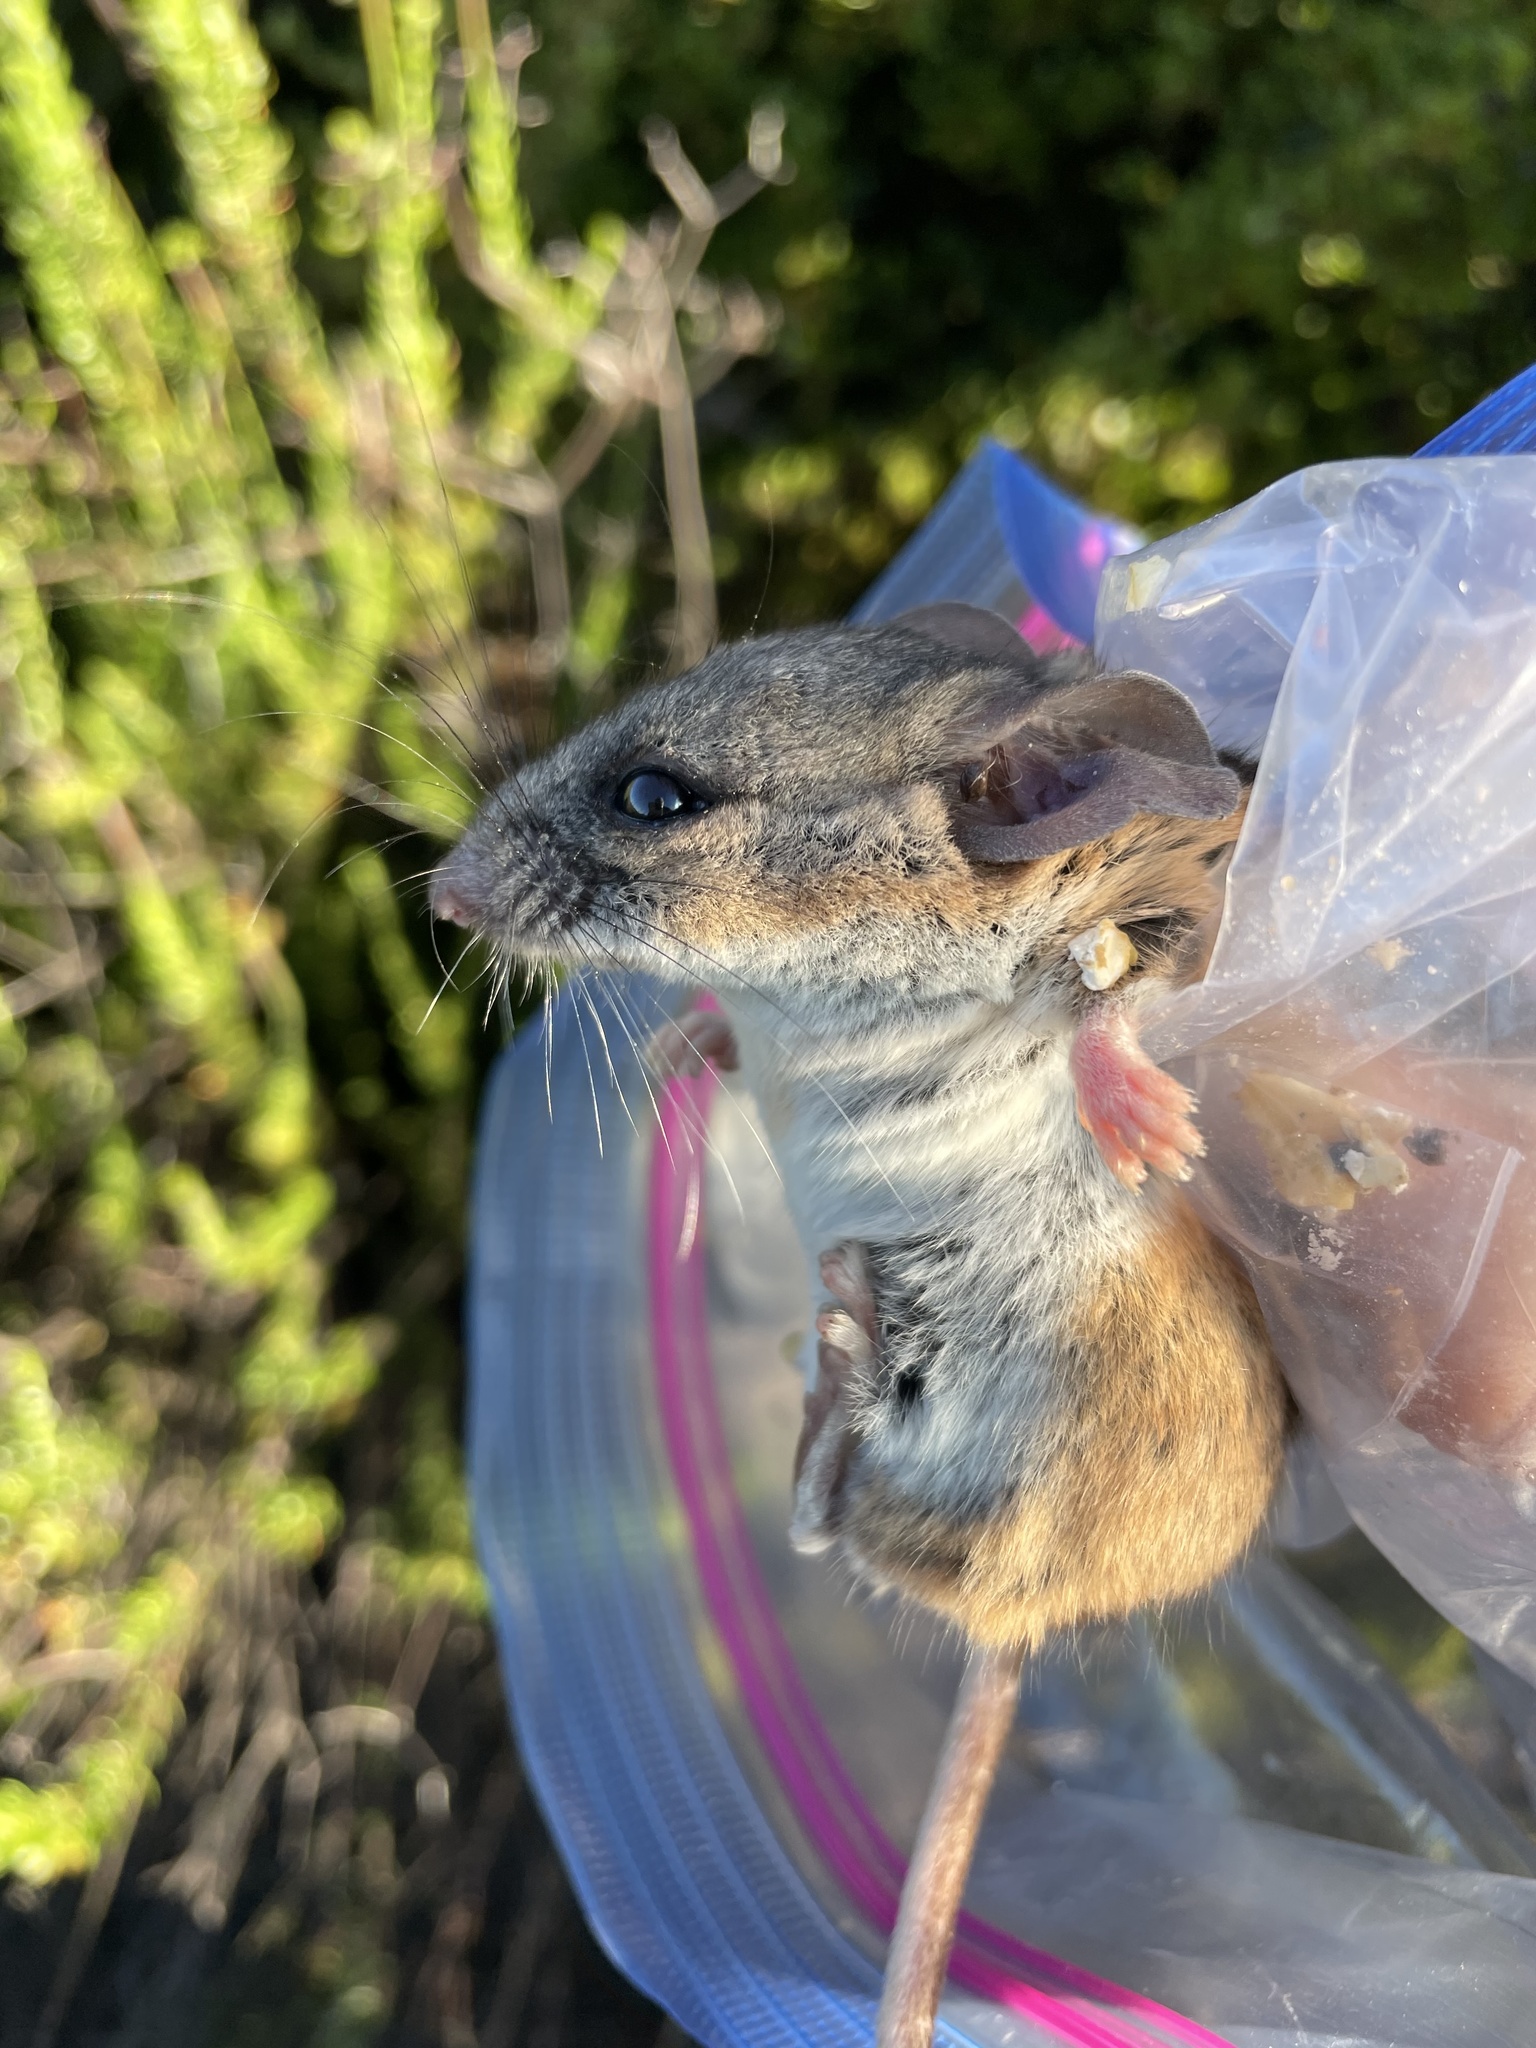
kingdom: Animalia
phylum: Chordata
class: Mammalia
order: Rodentia
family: Cricetidae
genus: Peromyscus
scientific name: Peromyscus californicus
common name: California deermouse
